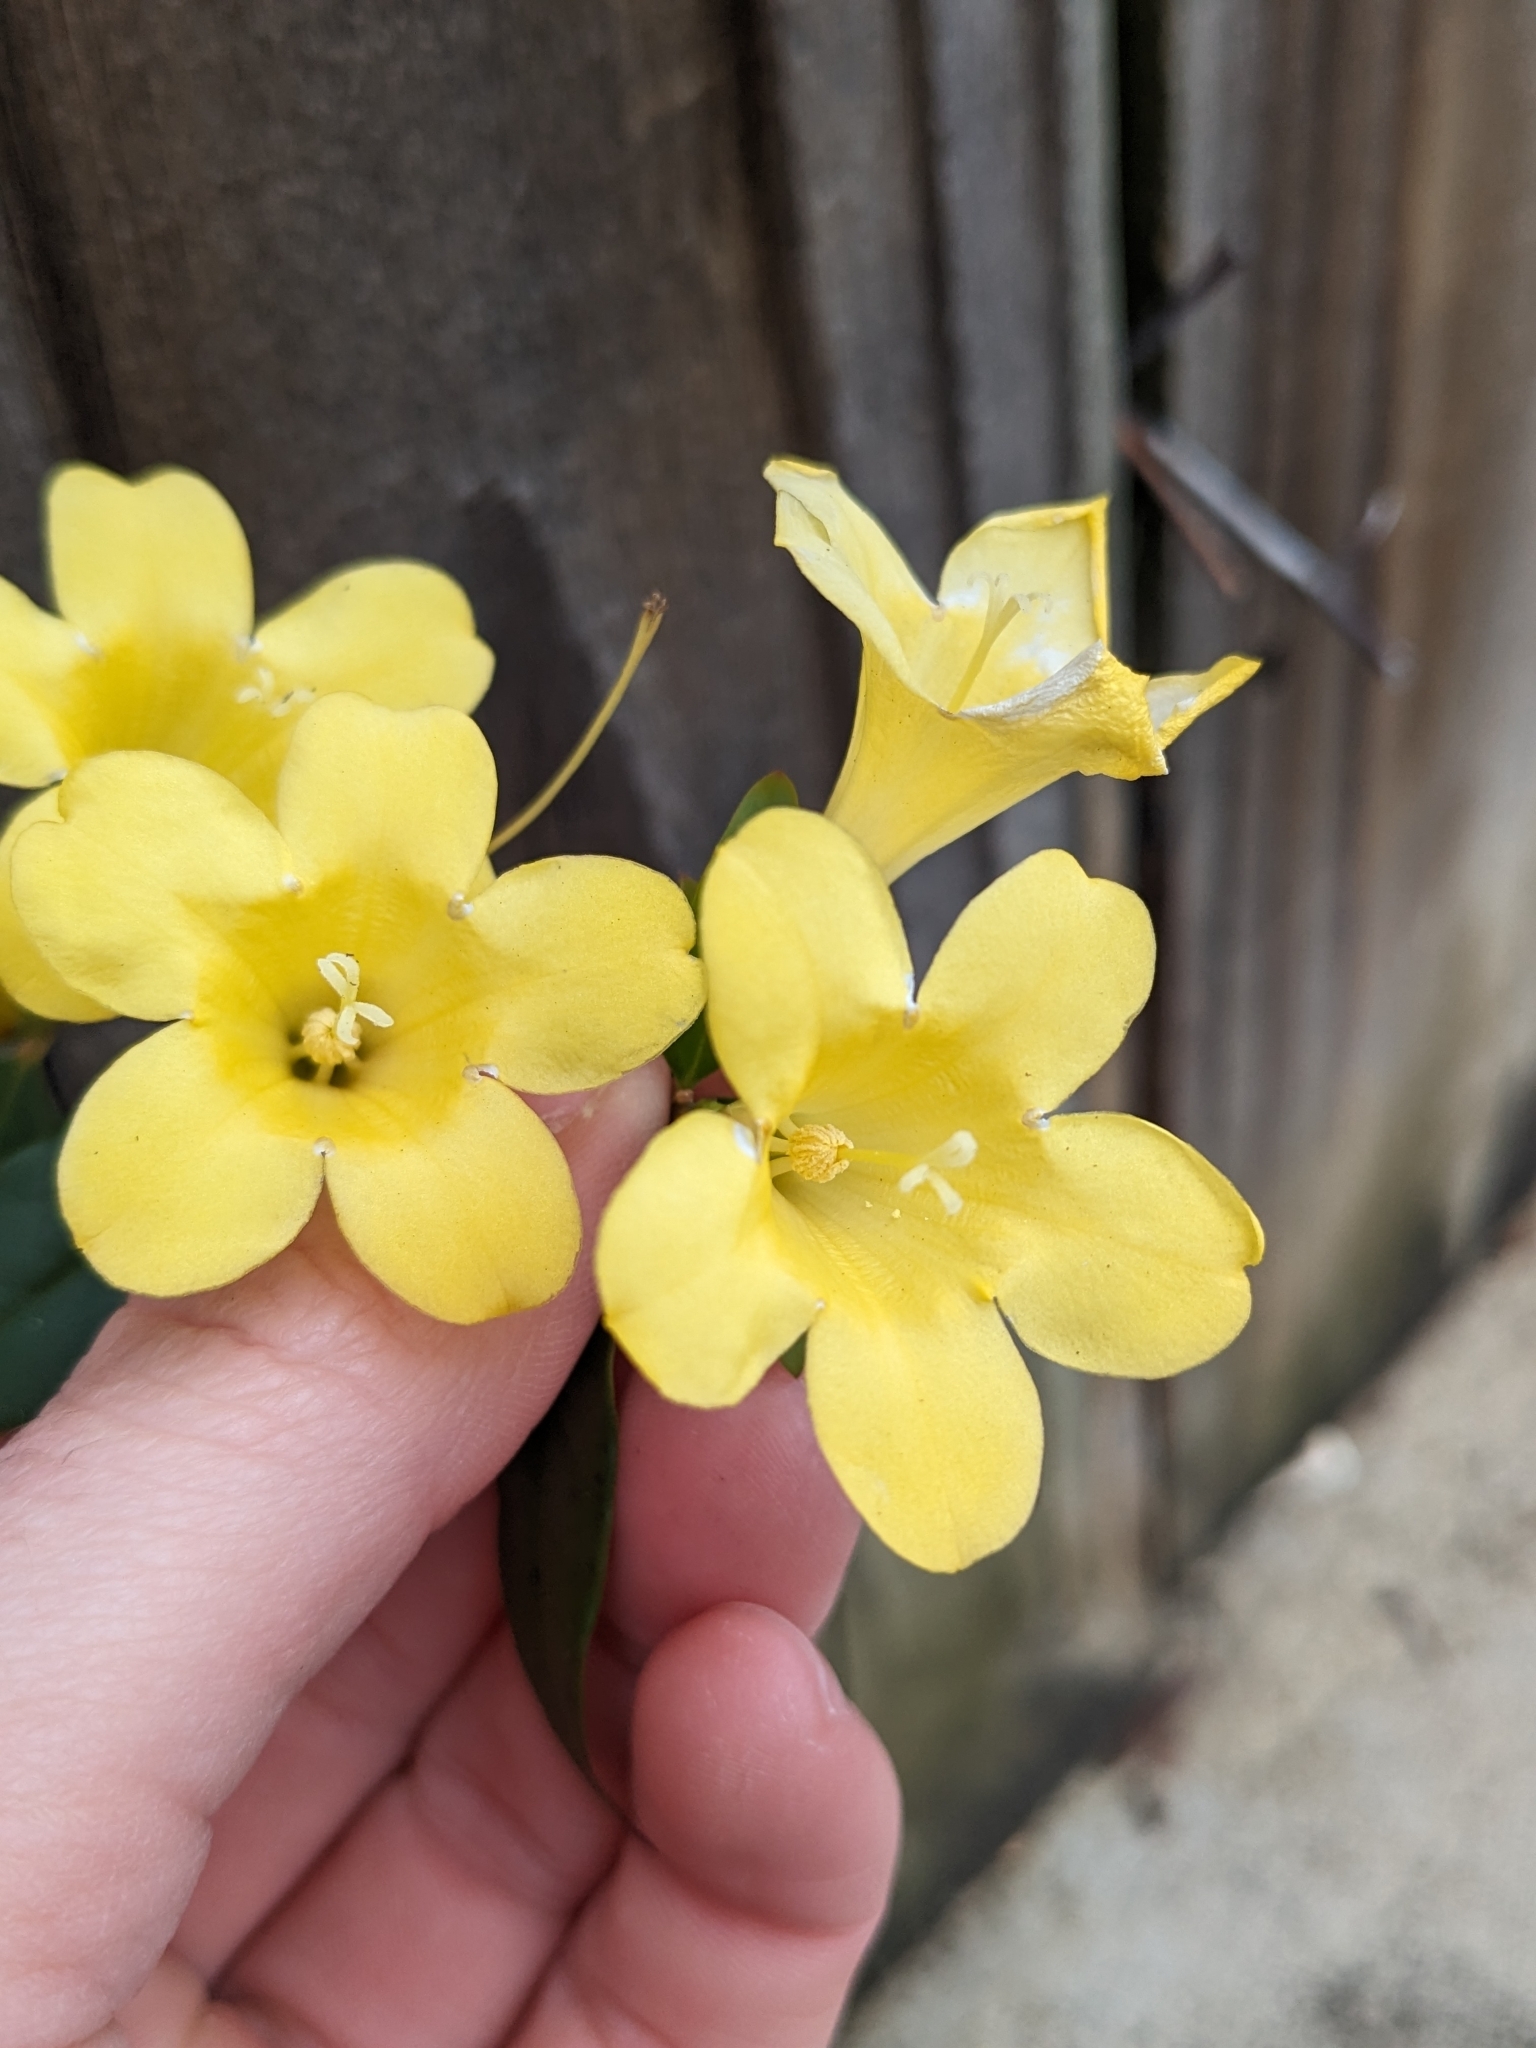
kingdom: Plantae
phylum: Tracheophyta
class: Magnoliopsida
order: Gentianales
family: Gelsemiaceae
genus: Gelsemium
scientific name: Gelsemium sempervirens
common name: Carolina-jasmine
